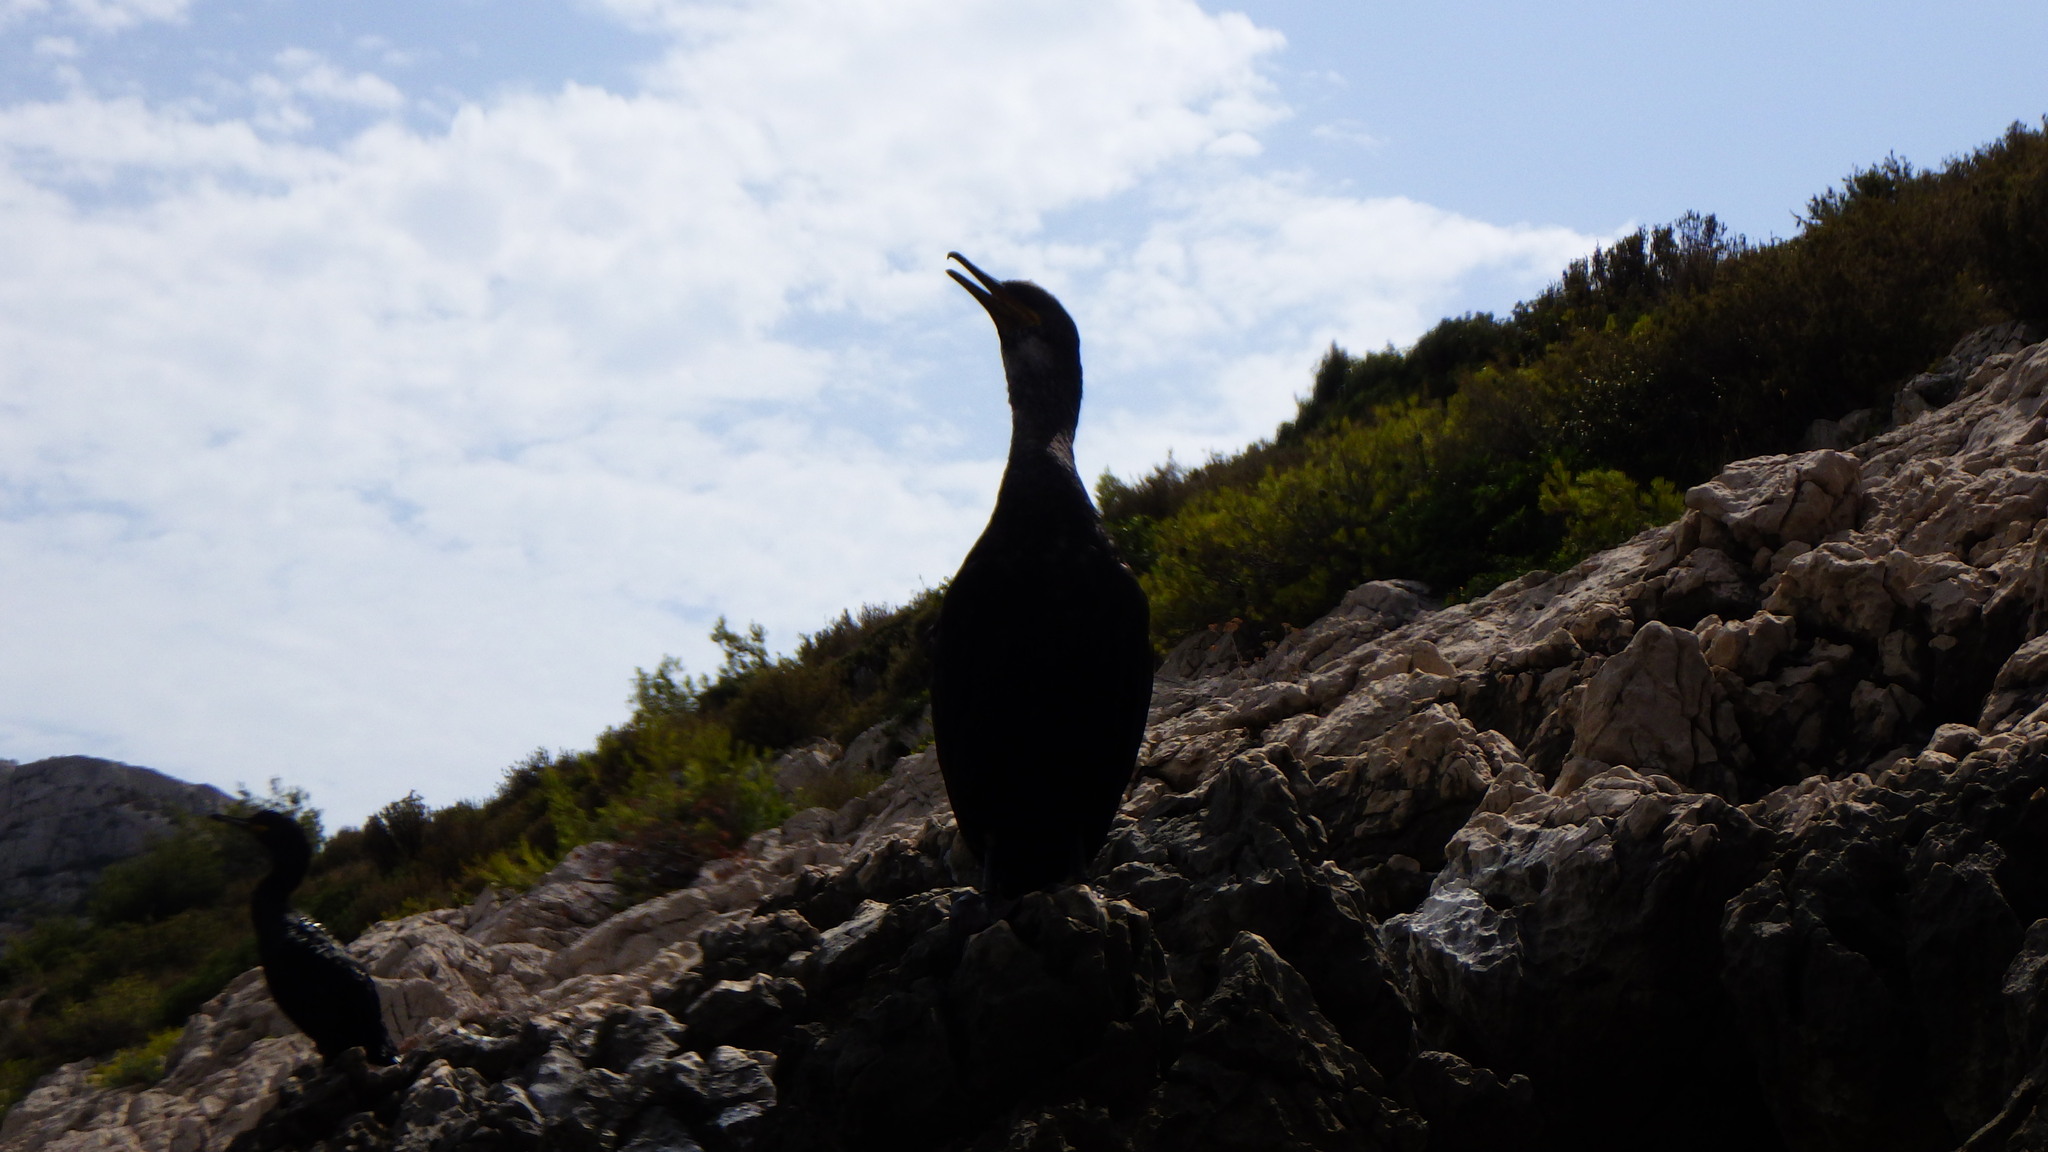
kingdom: Animalia
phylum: Chordata
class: Aves
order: Suliformes
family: Phalacrocoracidae
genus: Phalacrocorax
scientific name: Phalacrocorax aristotelis
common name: European shag
